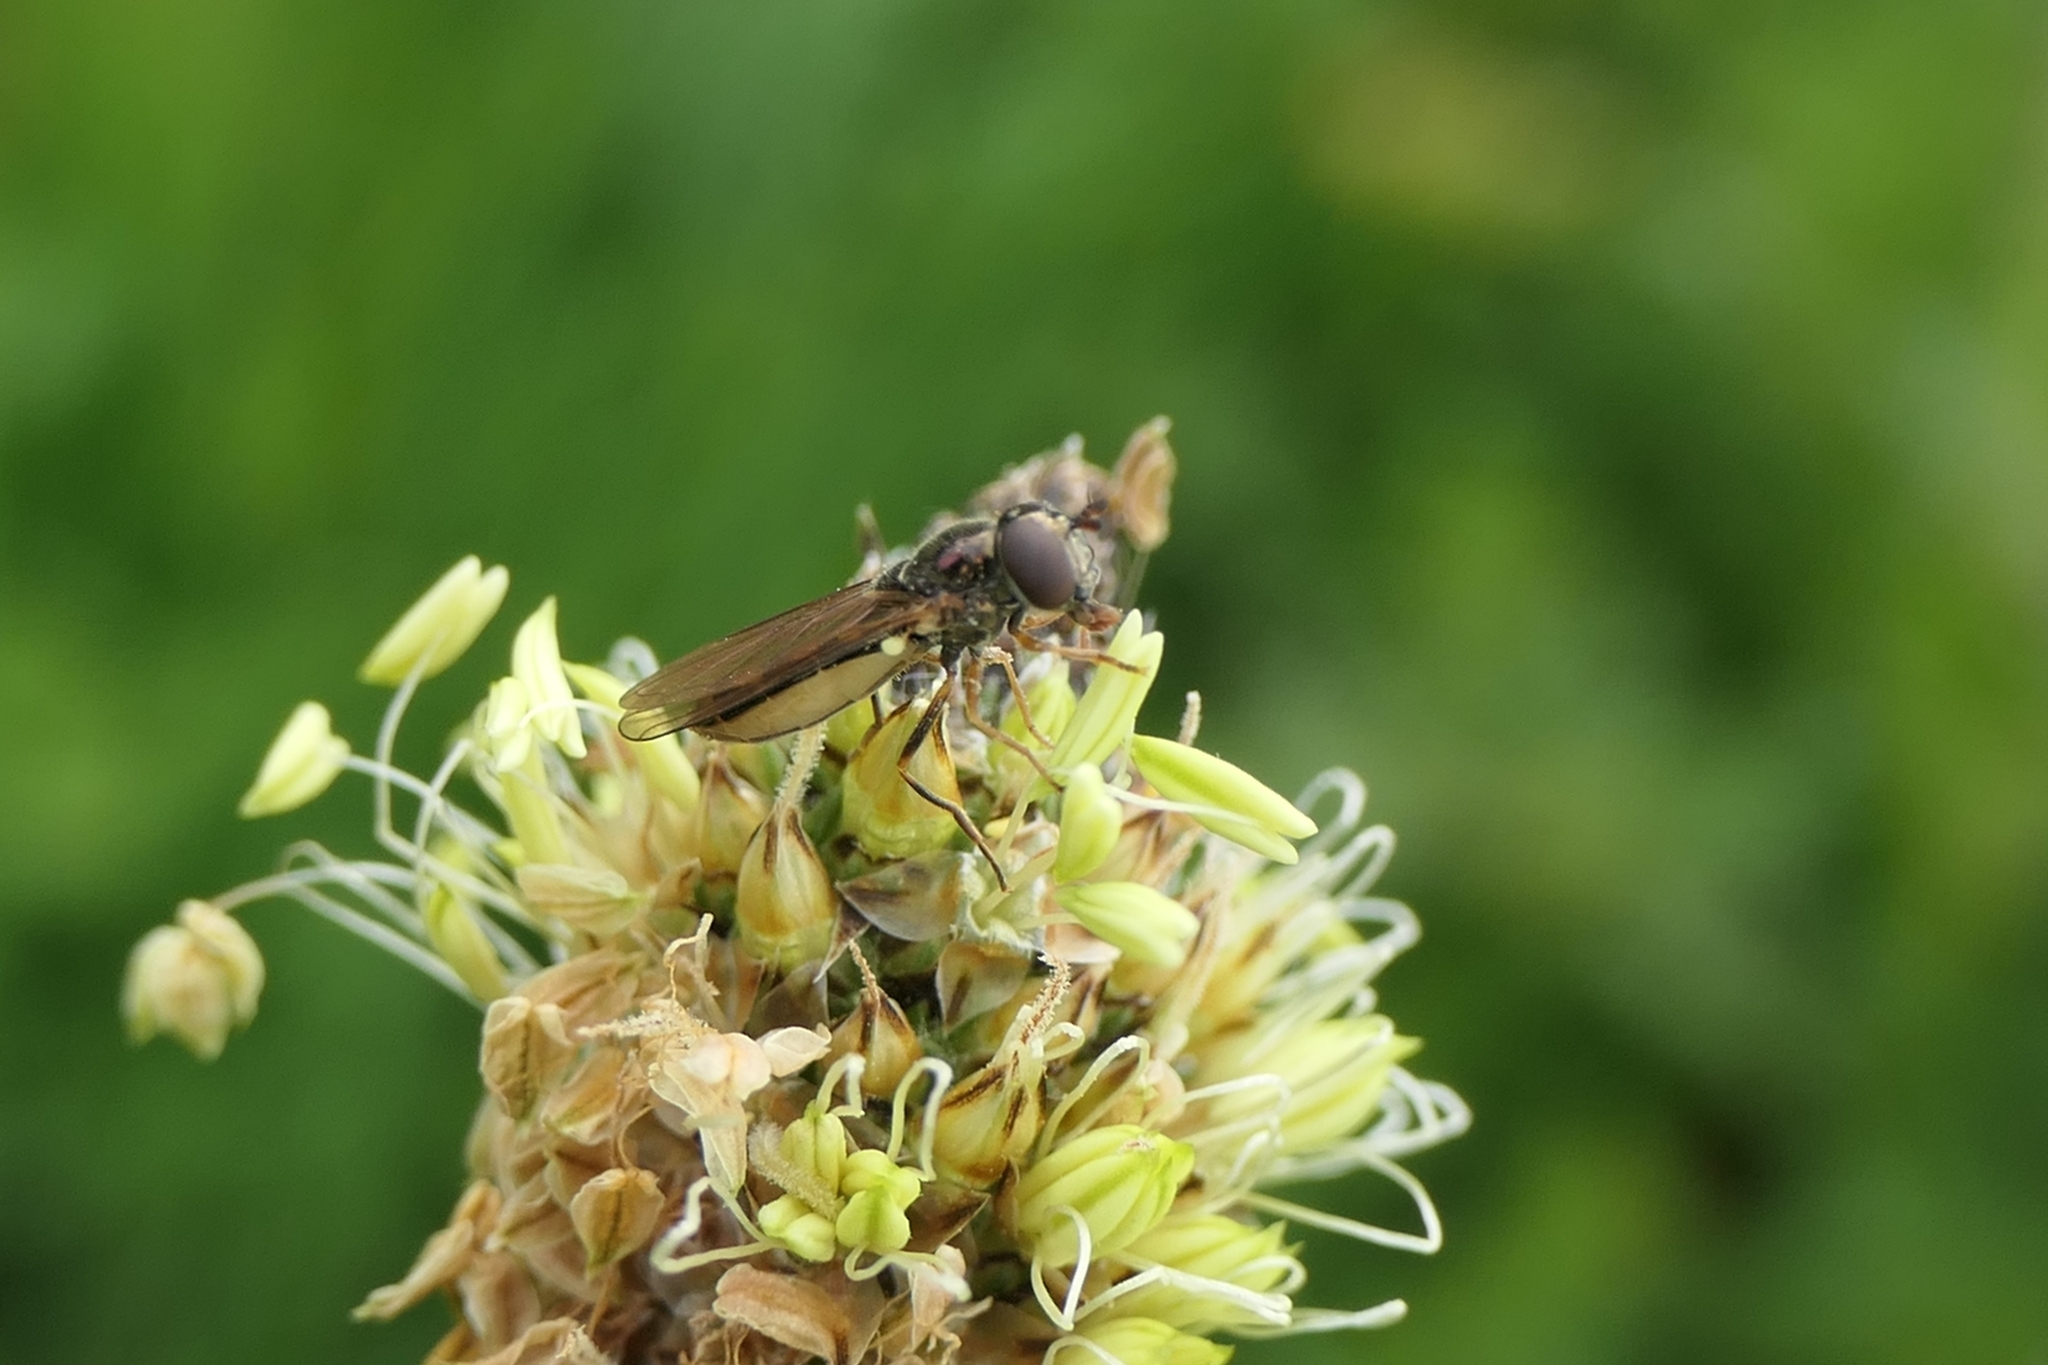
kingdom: Animalia
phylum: Arthropoda
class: Insecta
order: Diptera
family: Syrphidae
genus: Melanostoma
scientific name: Melanostoma fasciatum
